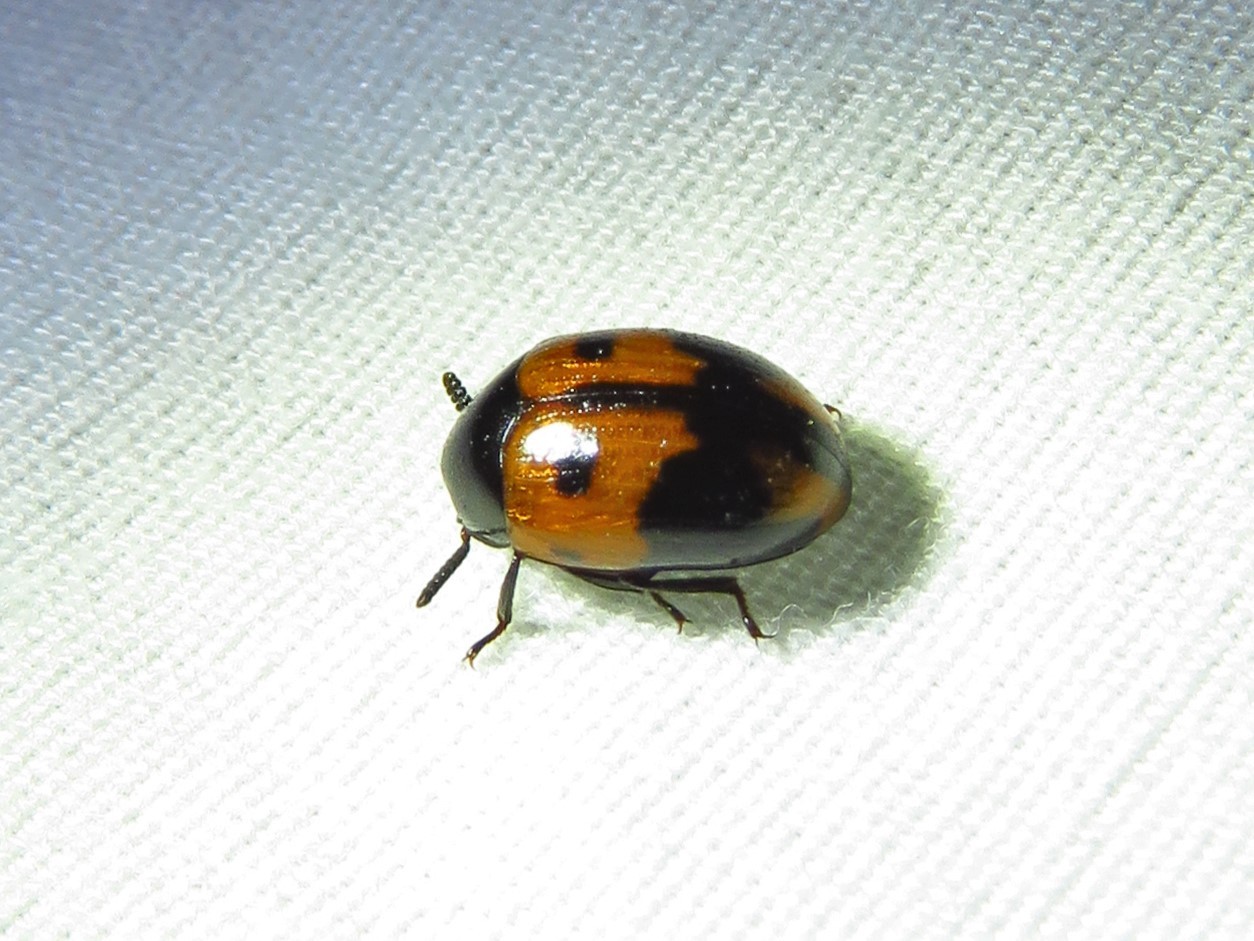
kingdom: Animalia
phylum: Arthropoda
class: Insecta
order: Coleoptera
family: Tenebrionidae
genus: Diaperis
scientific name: Diaperis maculata
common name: Darkling beetle
